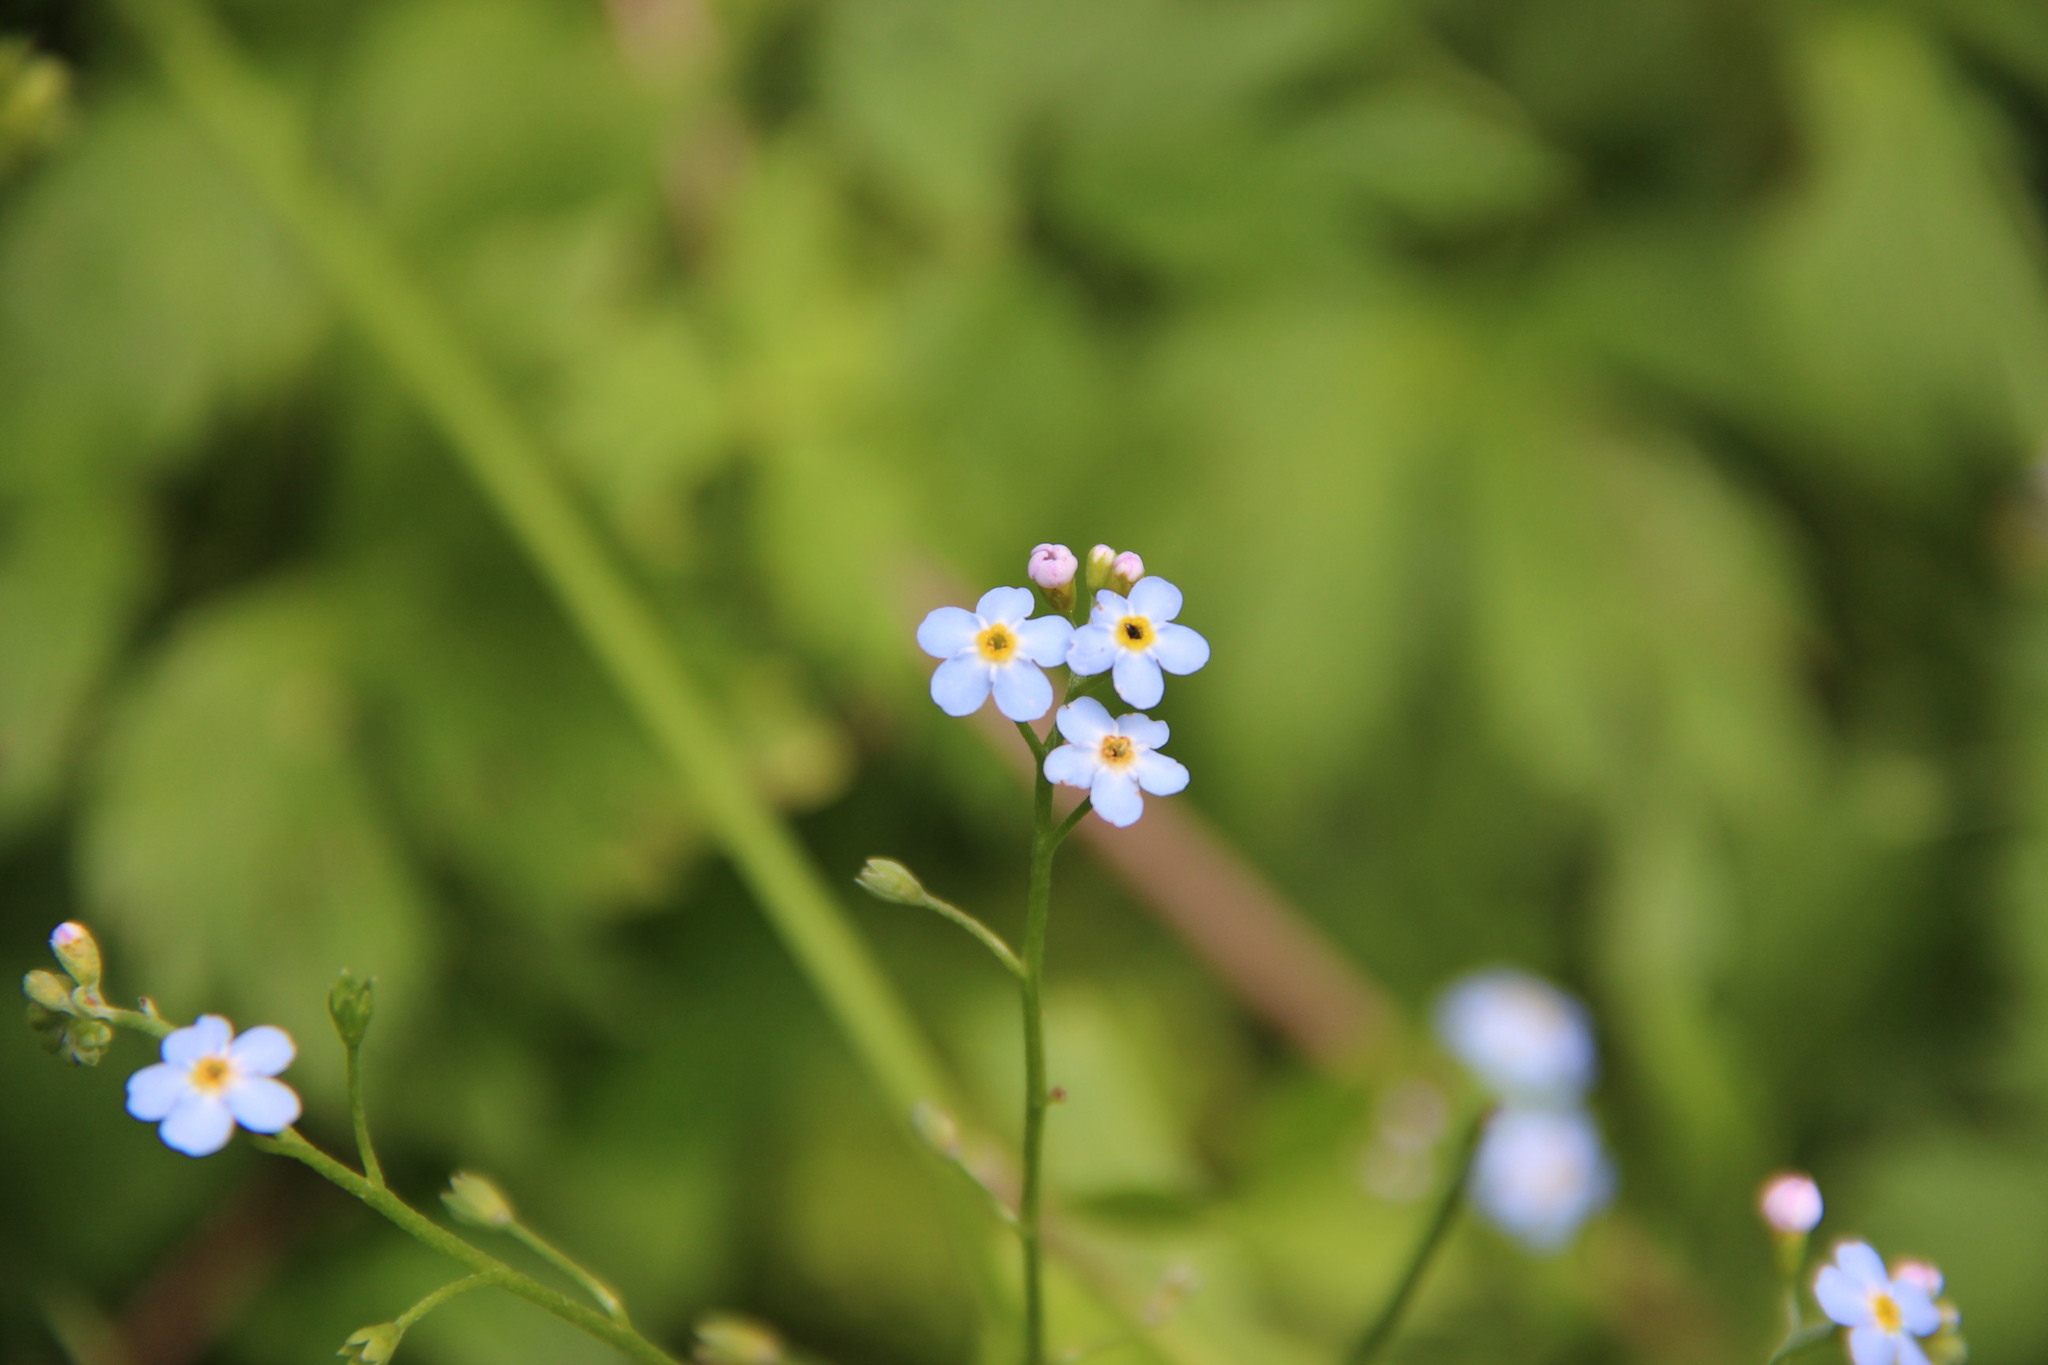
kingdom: Plantae
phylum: Tracheophyta
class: Magnoliopsida
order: Boraginales
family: Boraginaceae
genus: Myosotis
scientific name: Myosotis scorpioides
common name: Water forget-me-not
